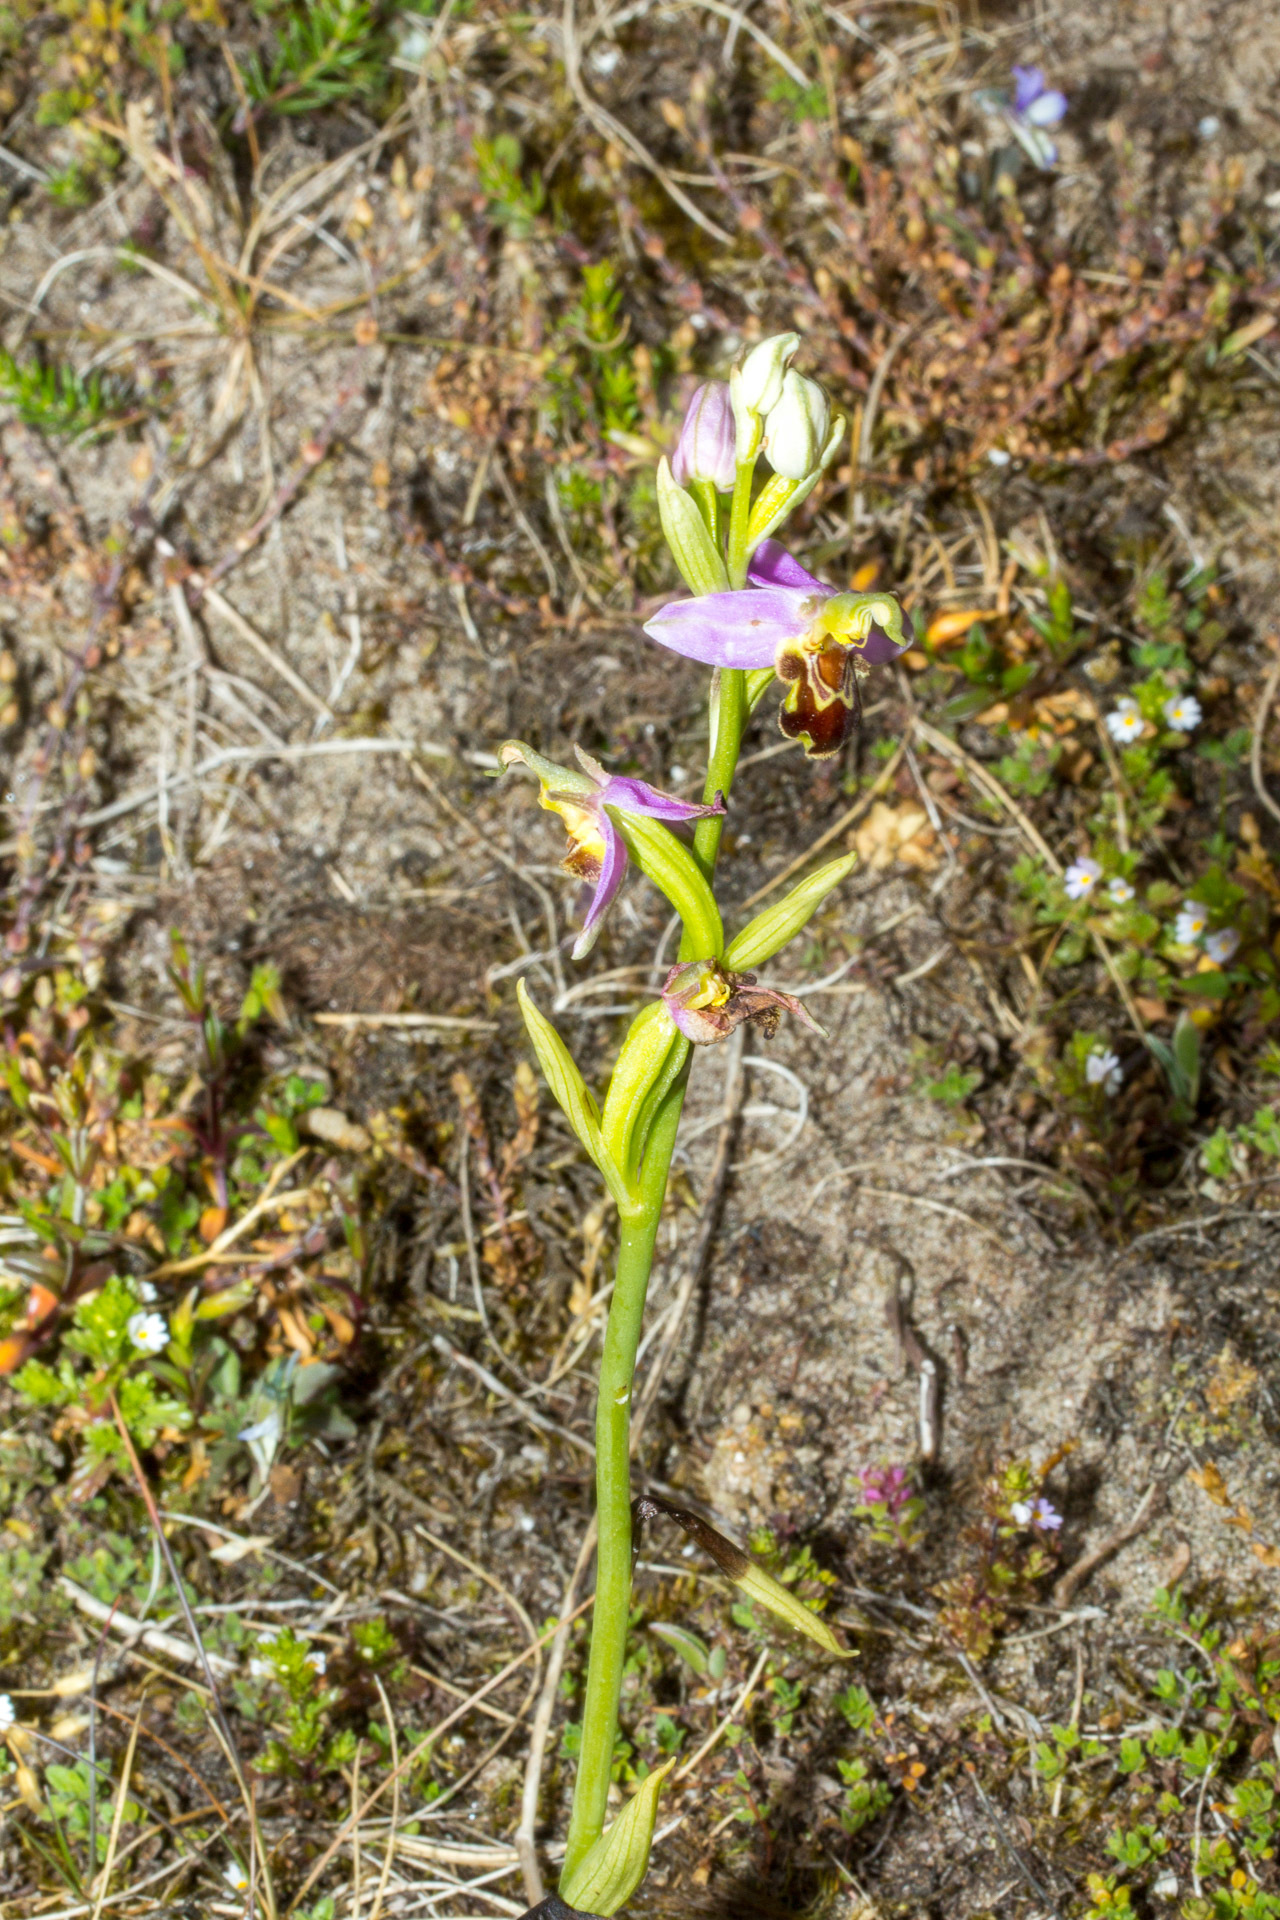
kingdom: Plantae
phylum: Tracheophyta
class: Liliopsida
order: Asparagales
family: Orchidaceae
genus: Ophrys
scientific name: Ophrys apifera
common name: Bee orchid
